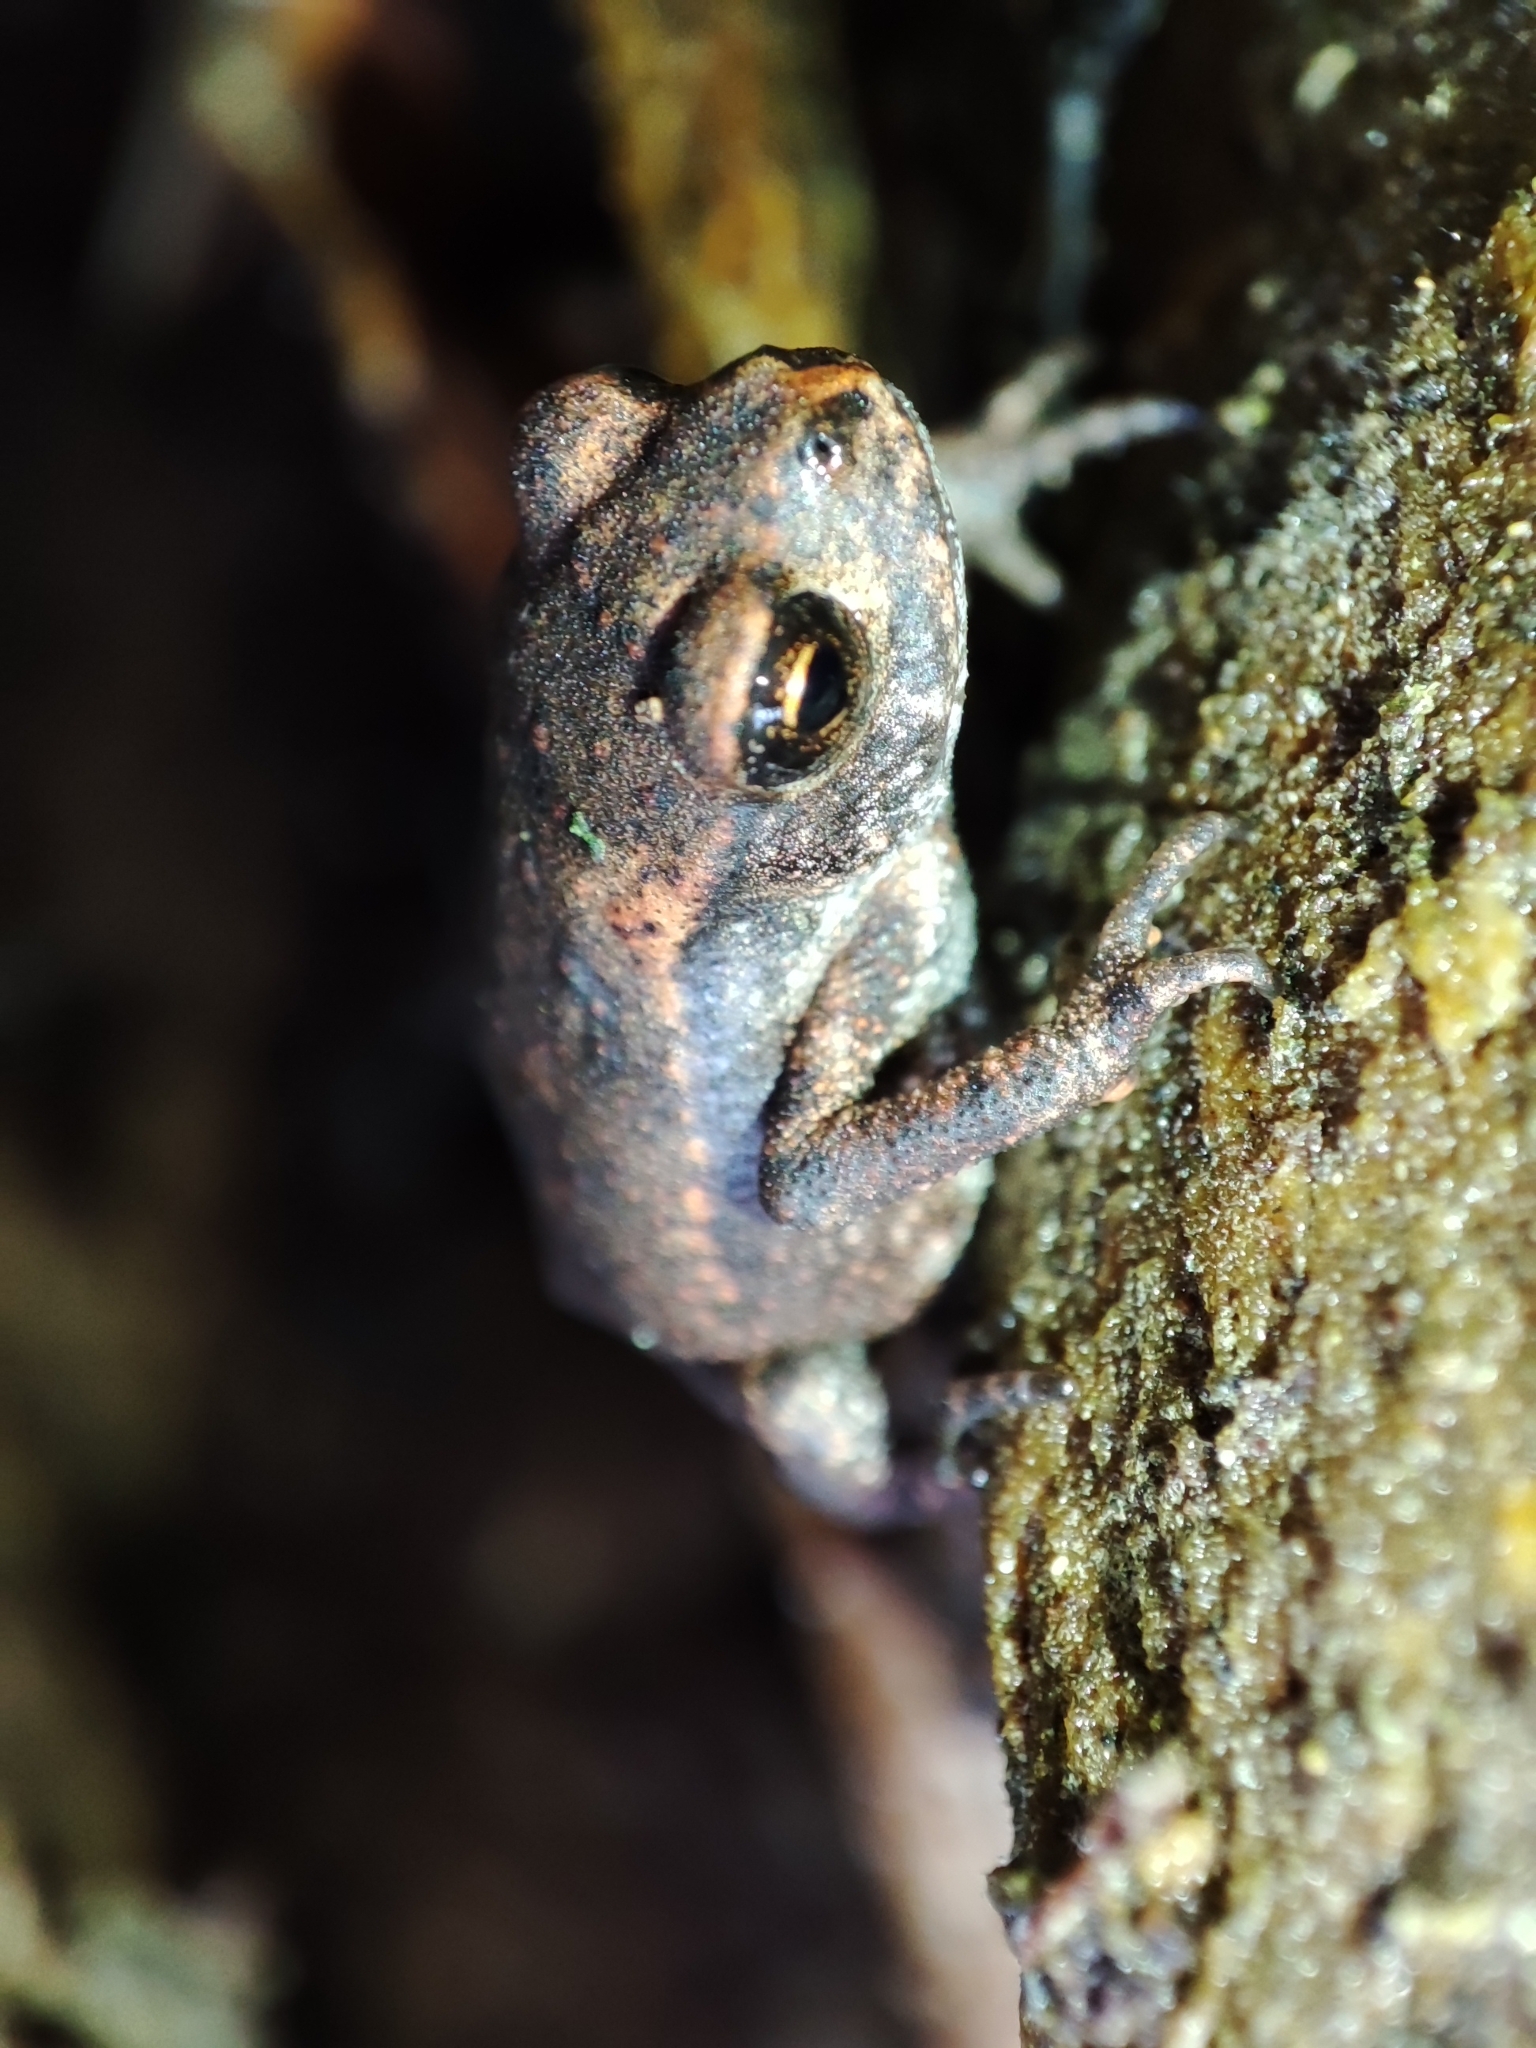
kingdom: Animalia
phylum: Chordata
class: Amphibia
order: Anura
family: Bufonidae
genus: Bufo
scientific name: Bufo bufo
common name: Common toad
